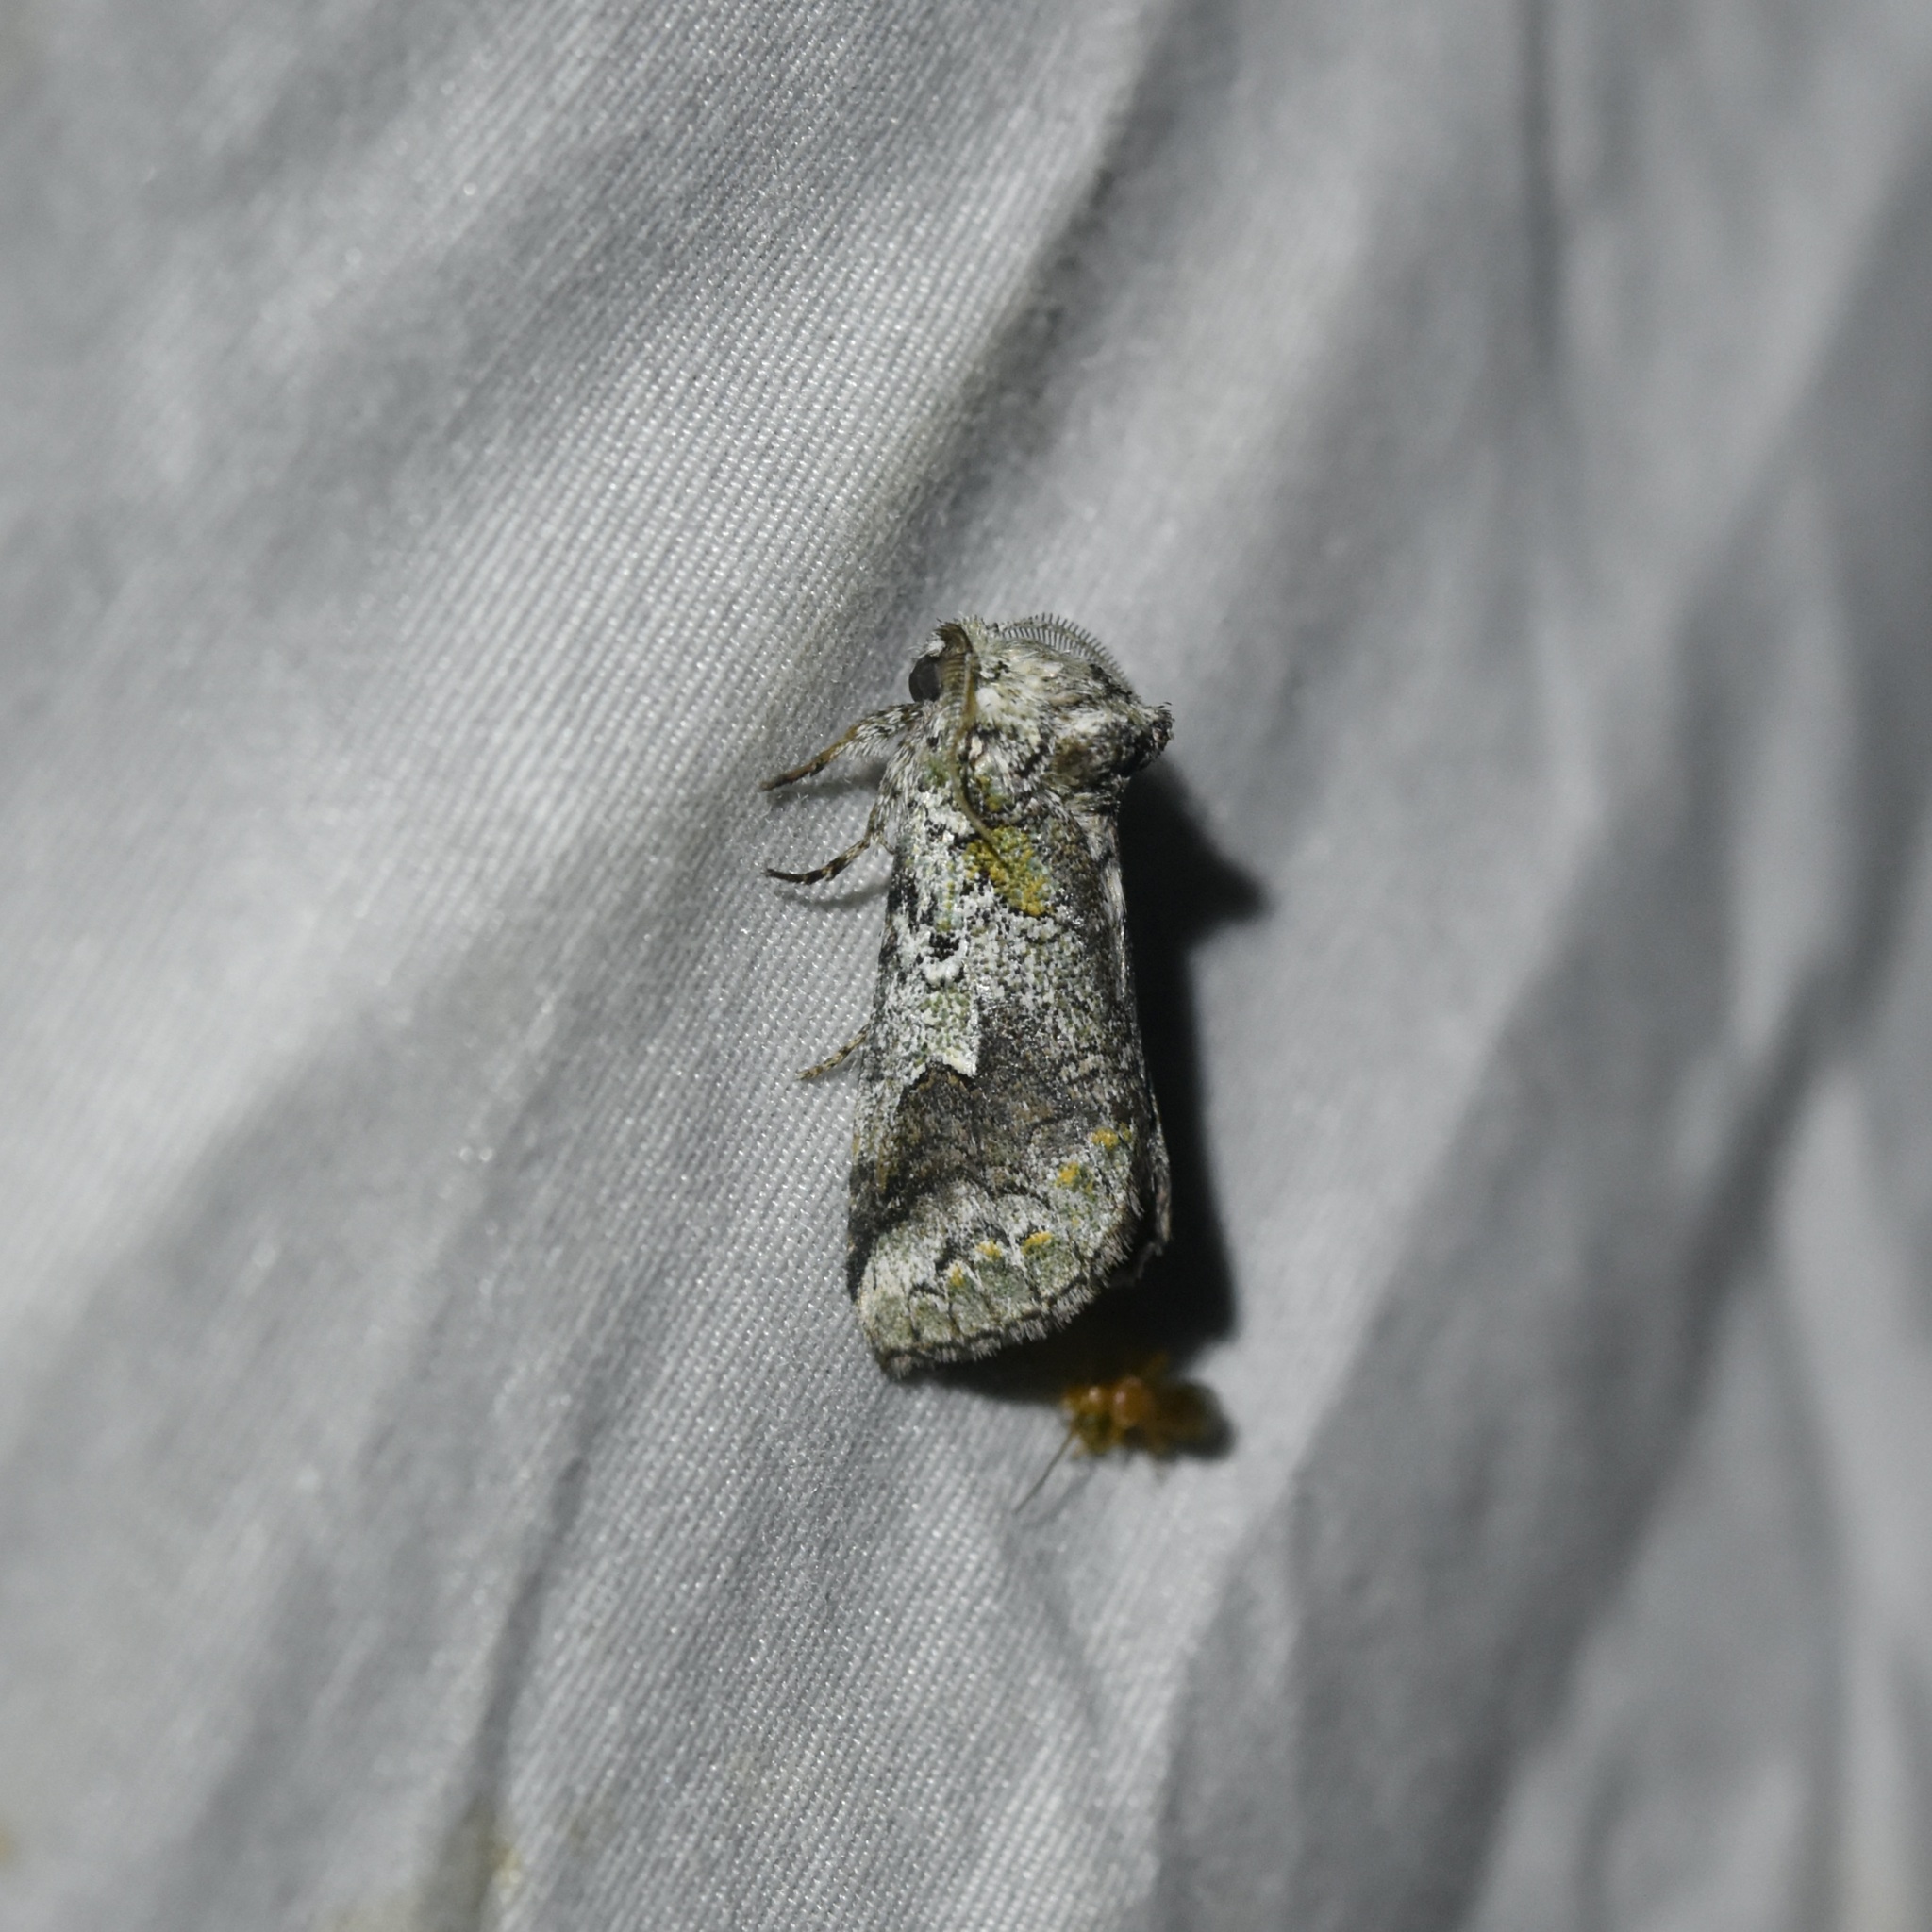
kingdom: Animalia
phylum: Arthropoda
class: Insecta
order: Lepidoptera
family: Notodontidae
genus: Litodonta
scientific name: Litodonta hydromeli
